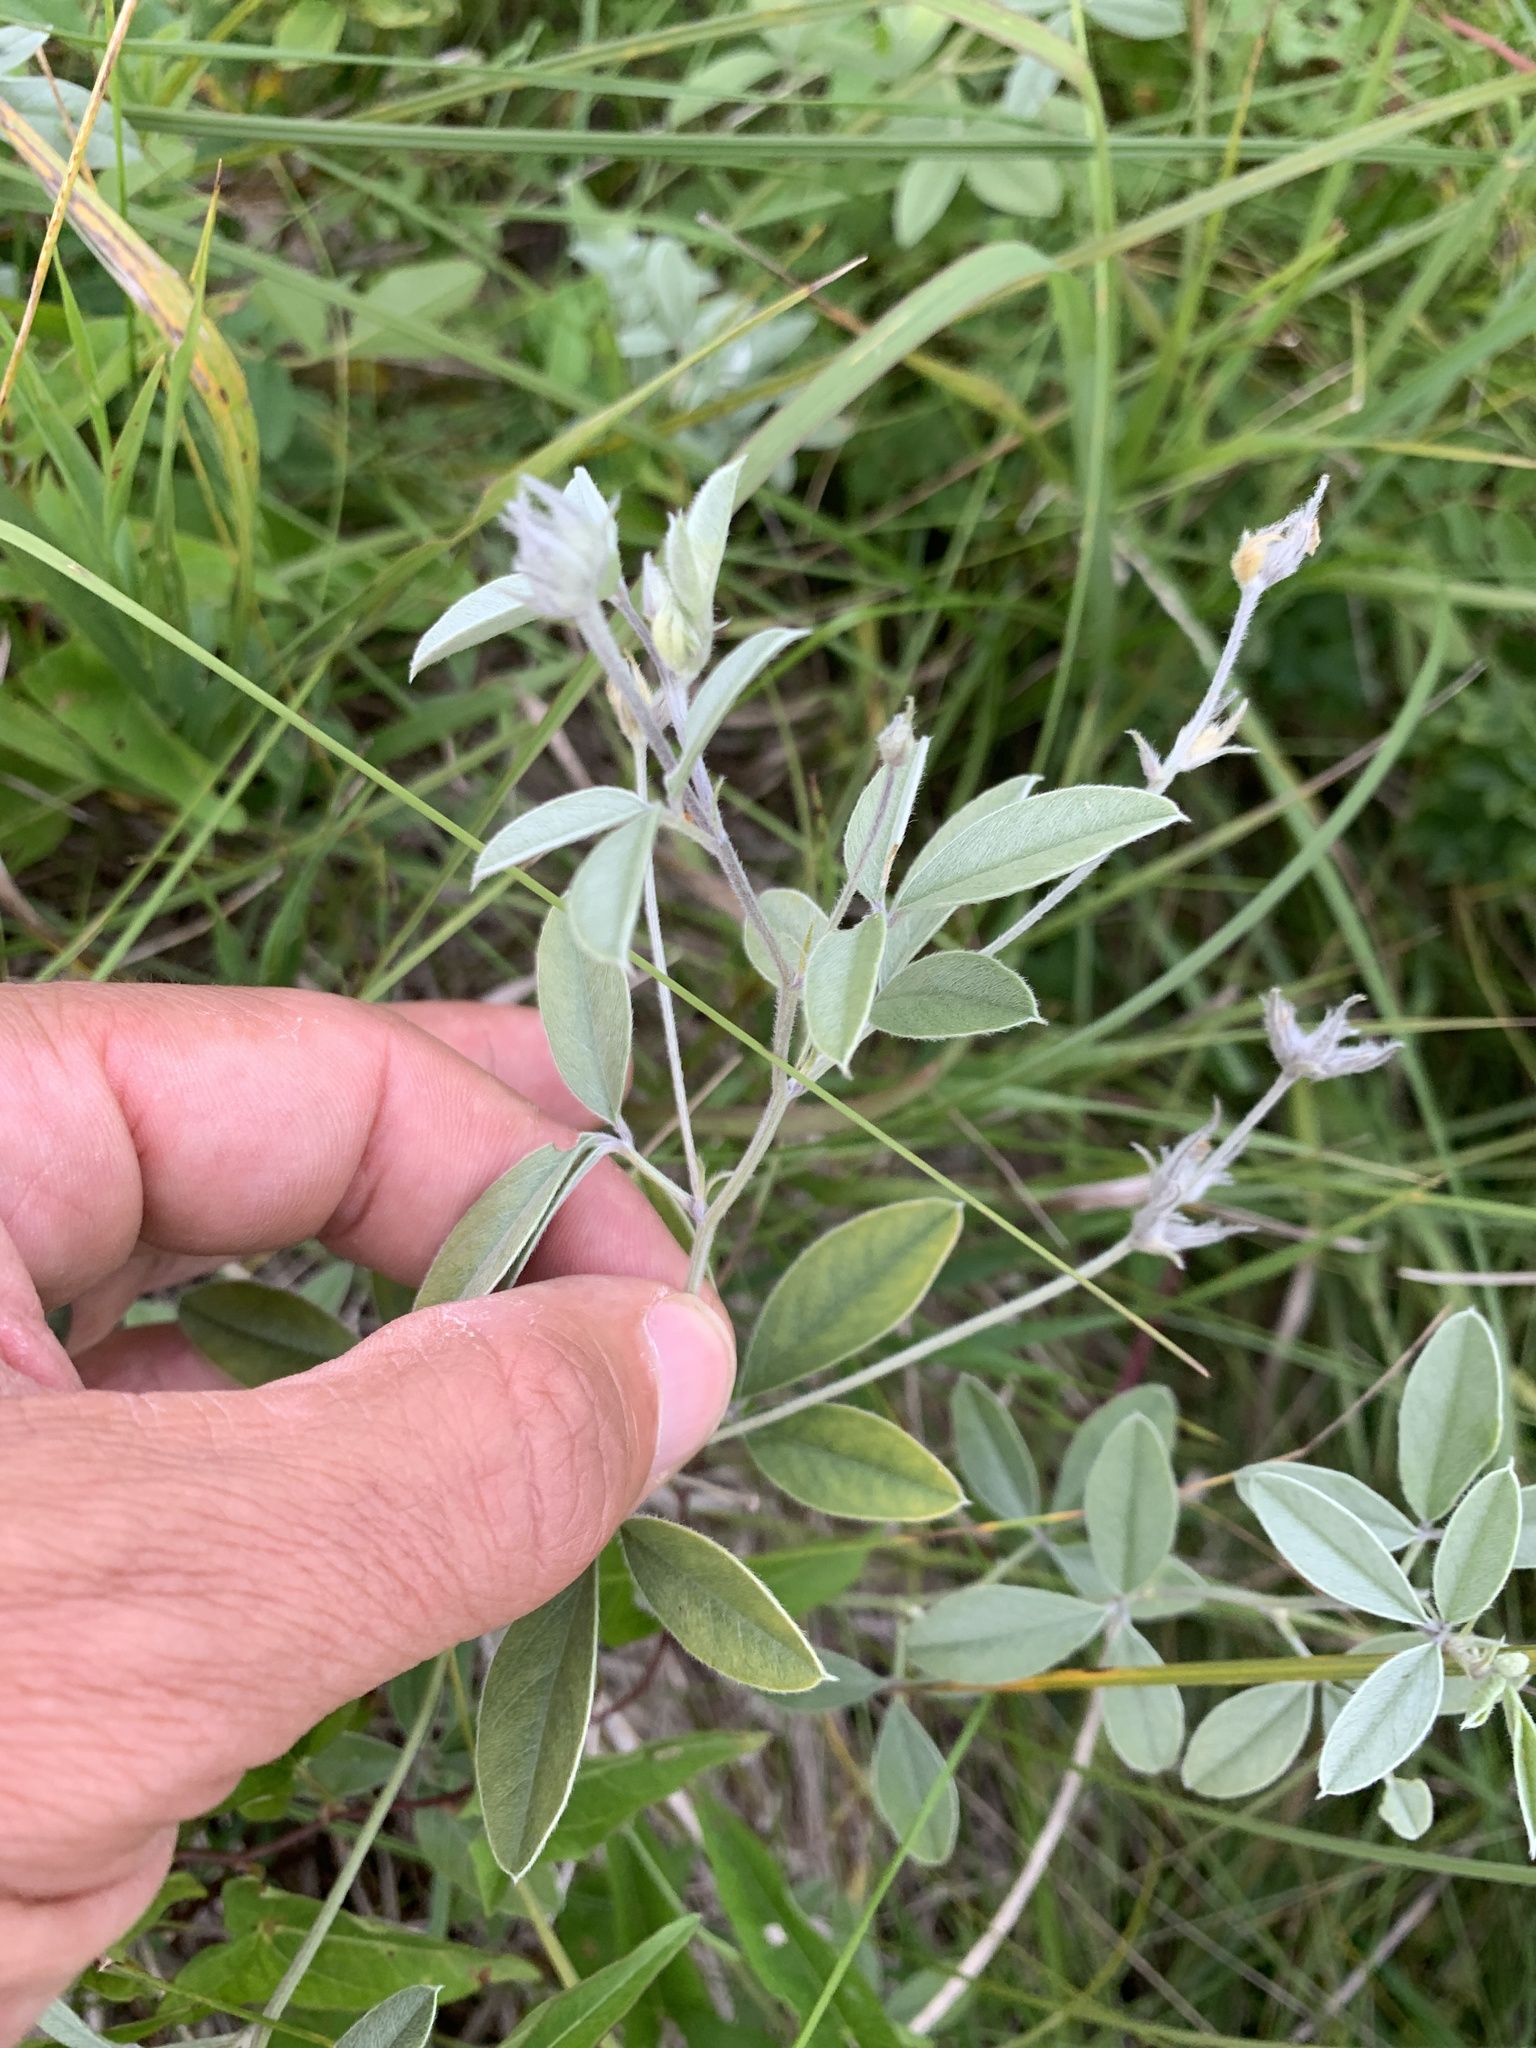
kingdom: Plantae
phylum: Tracheophyta
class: Magnoliopsida
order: Fabales
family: Fabaceae
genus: Pediomelum
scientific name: Pediomelum argophyllum
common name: Silver-leaved indian breadroot
